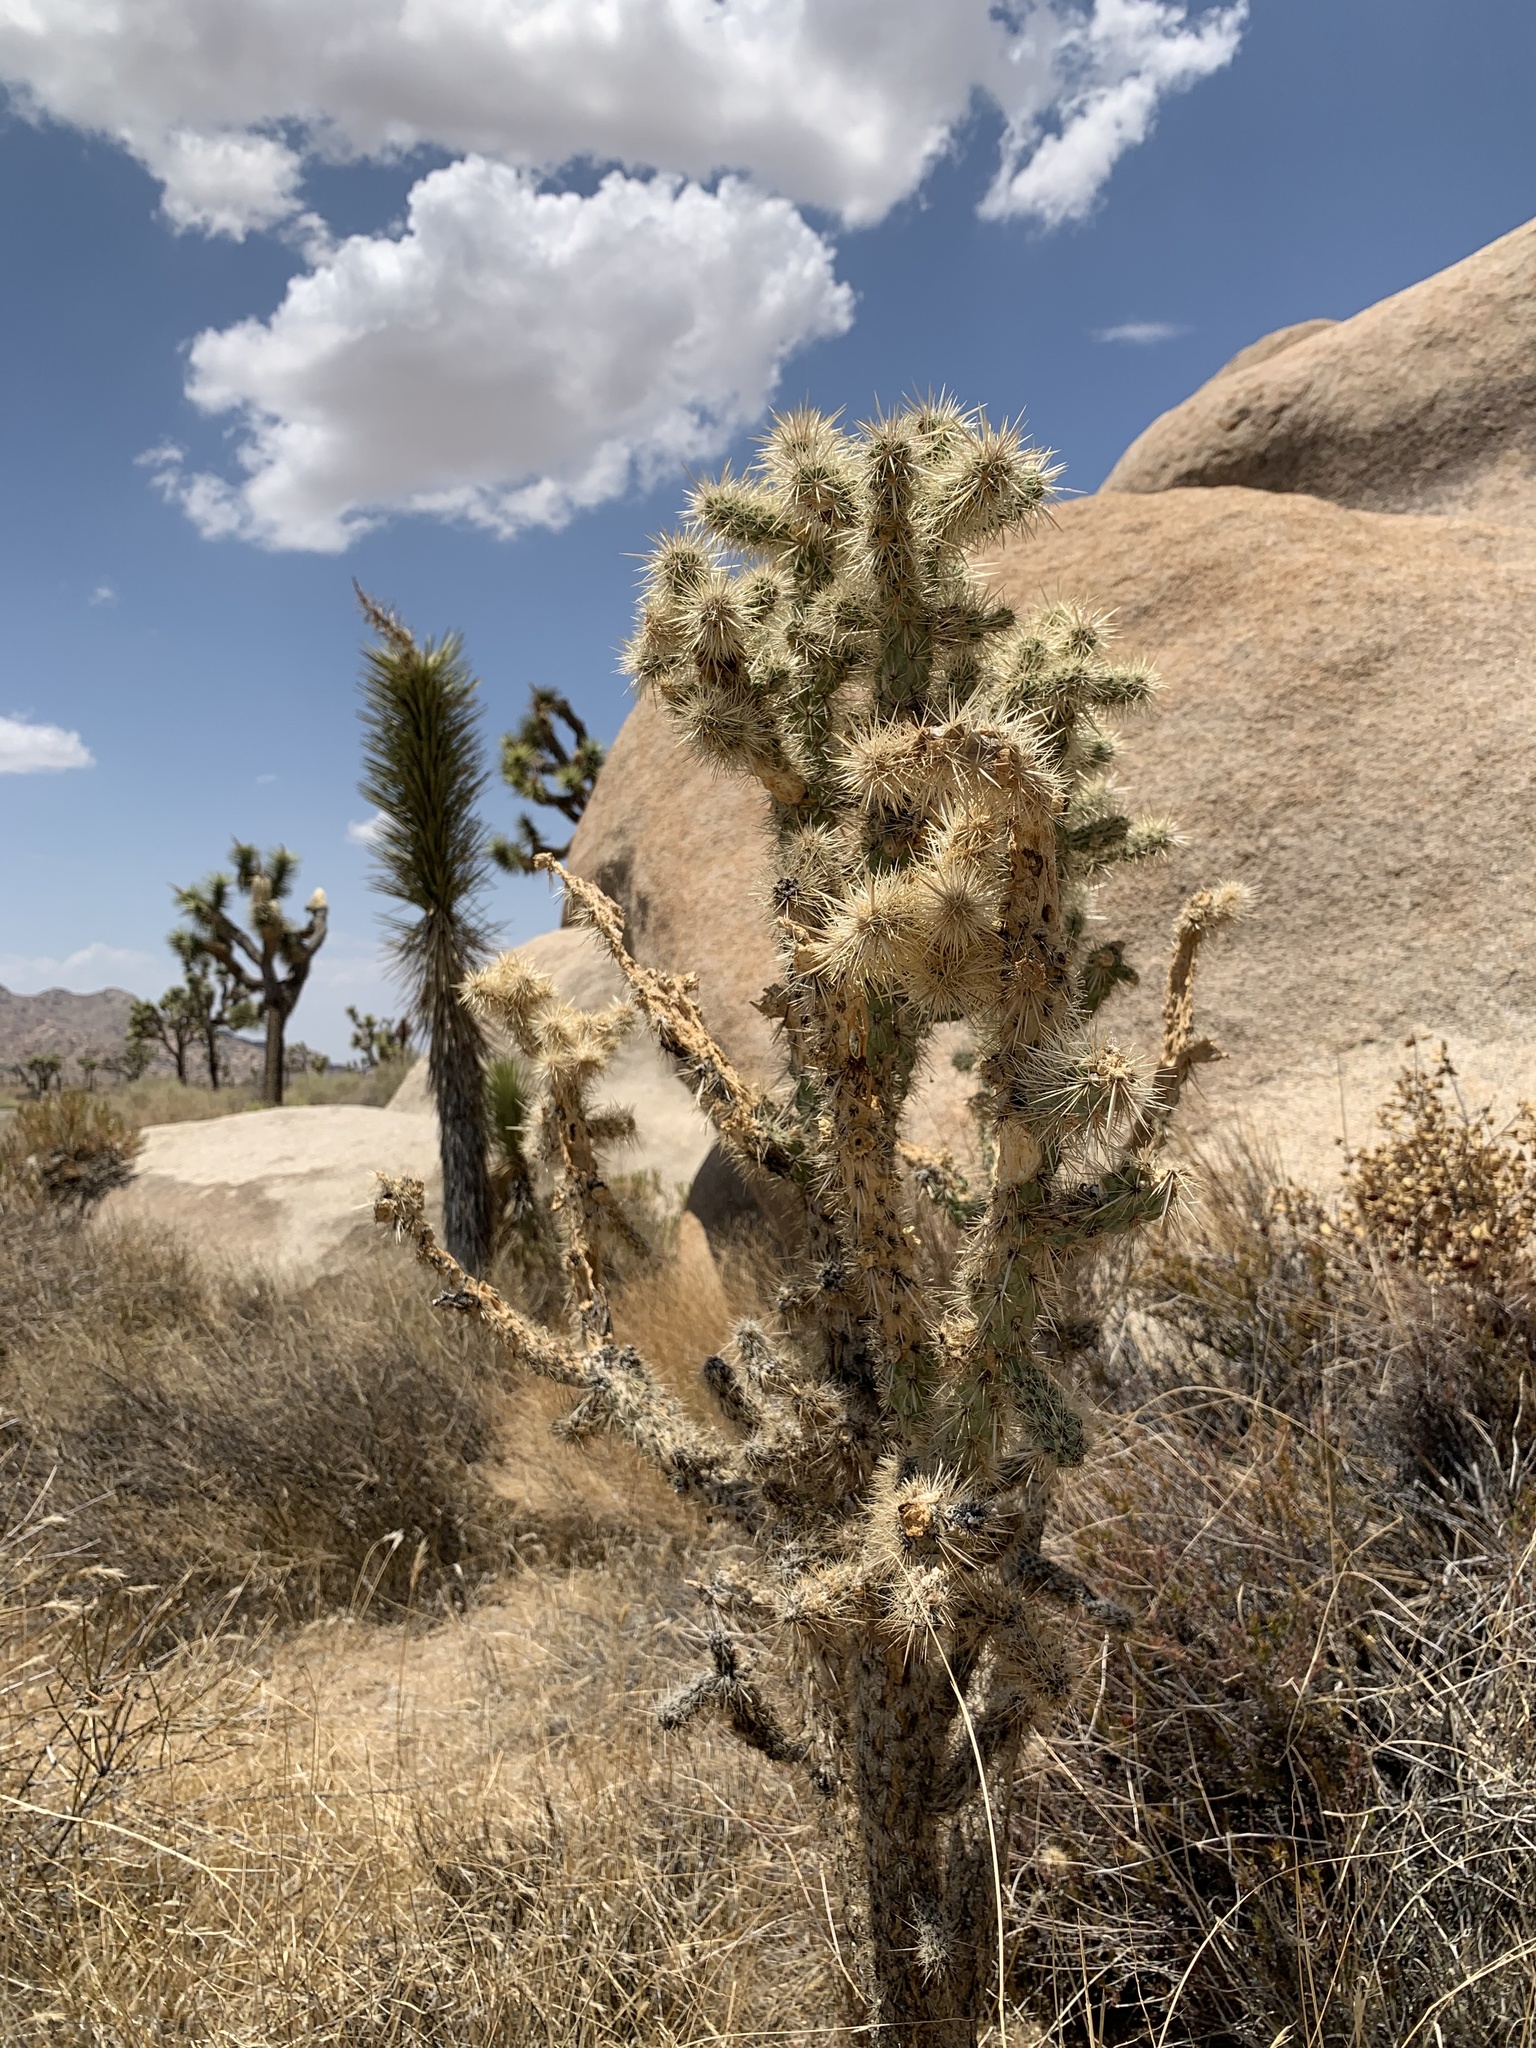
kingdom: Plantae
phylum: Tracheophyta
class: Magnoliopsida
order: Caryophyllales
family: Cactaceae
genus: Cylindropuntia
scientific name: Cylindropuntia echinocarpa
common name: Ground cholla
